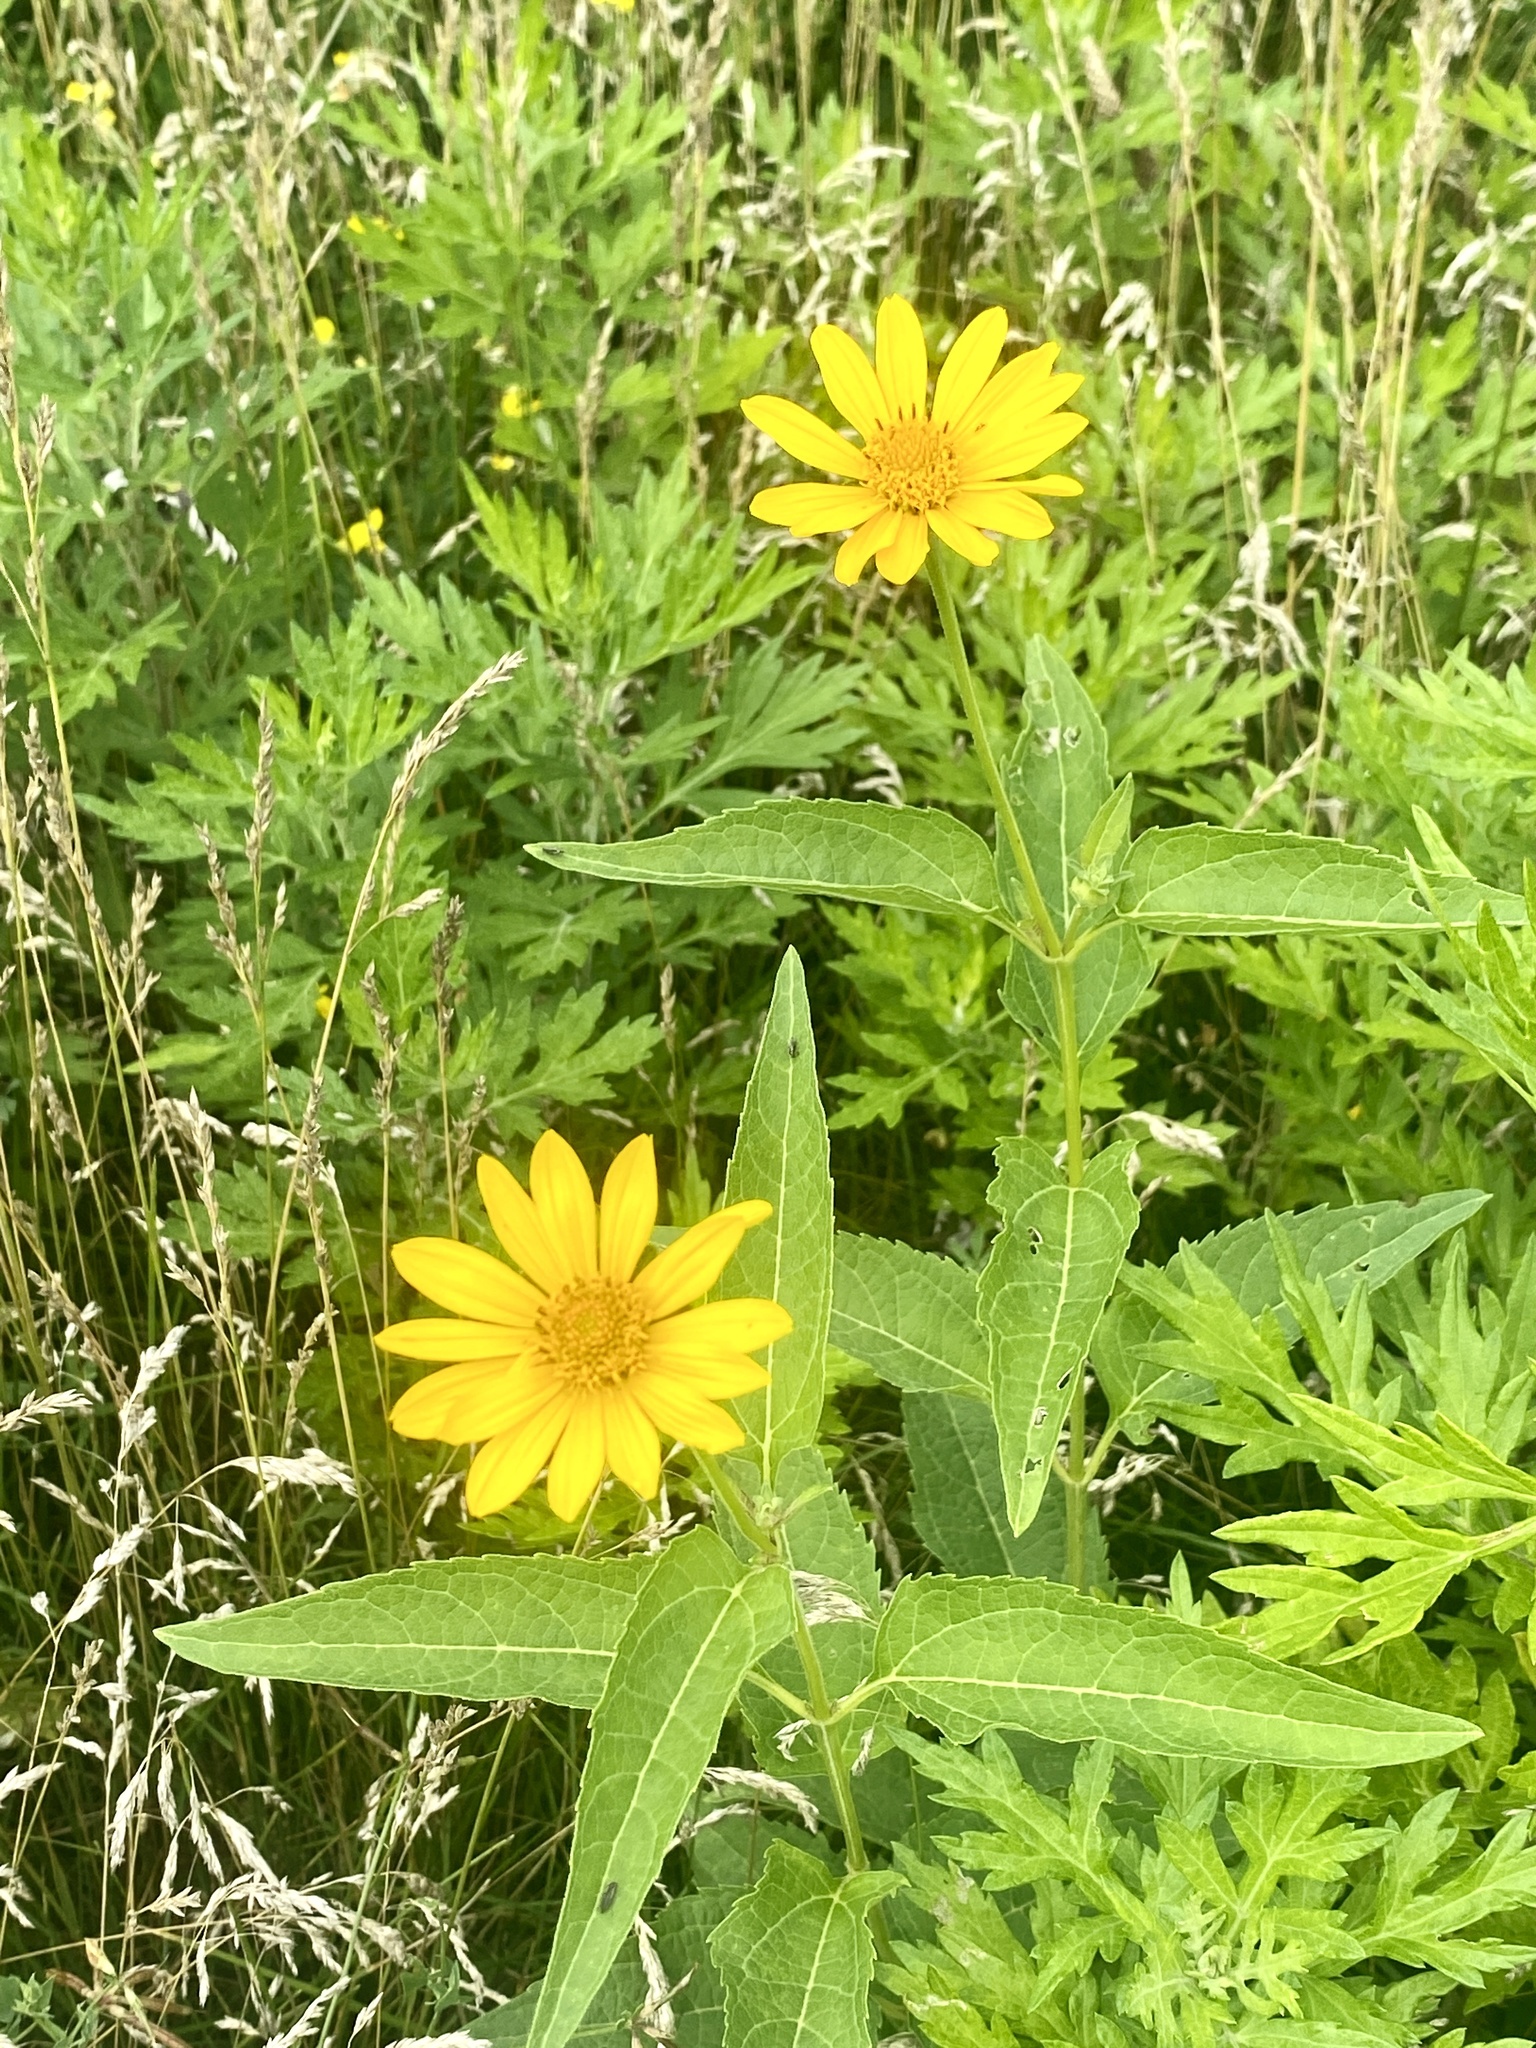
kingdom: Plantae
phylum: Tracheophyta
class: Magnoliopsida
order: Asterales
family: Asteraceae
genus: Heliopsis
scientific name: Heliopsis helianthoides
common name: False sunflower
